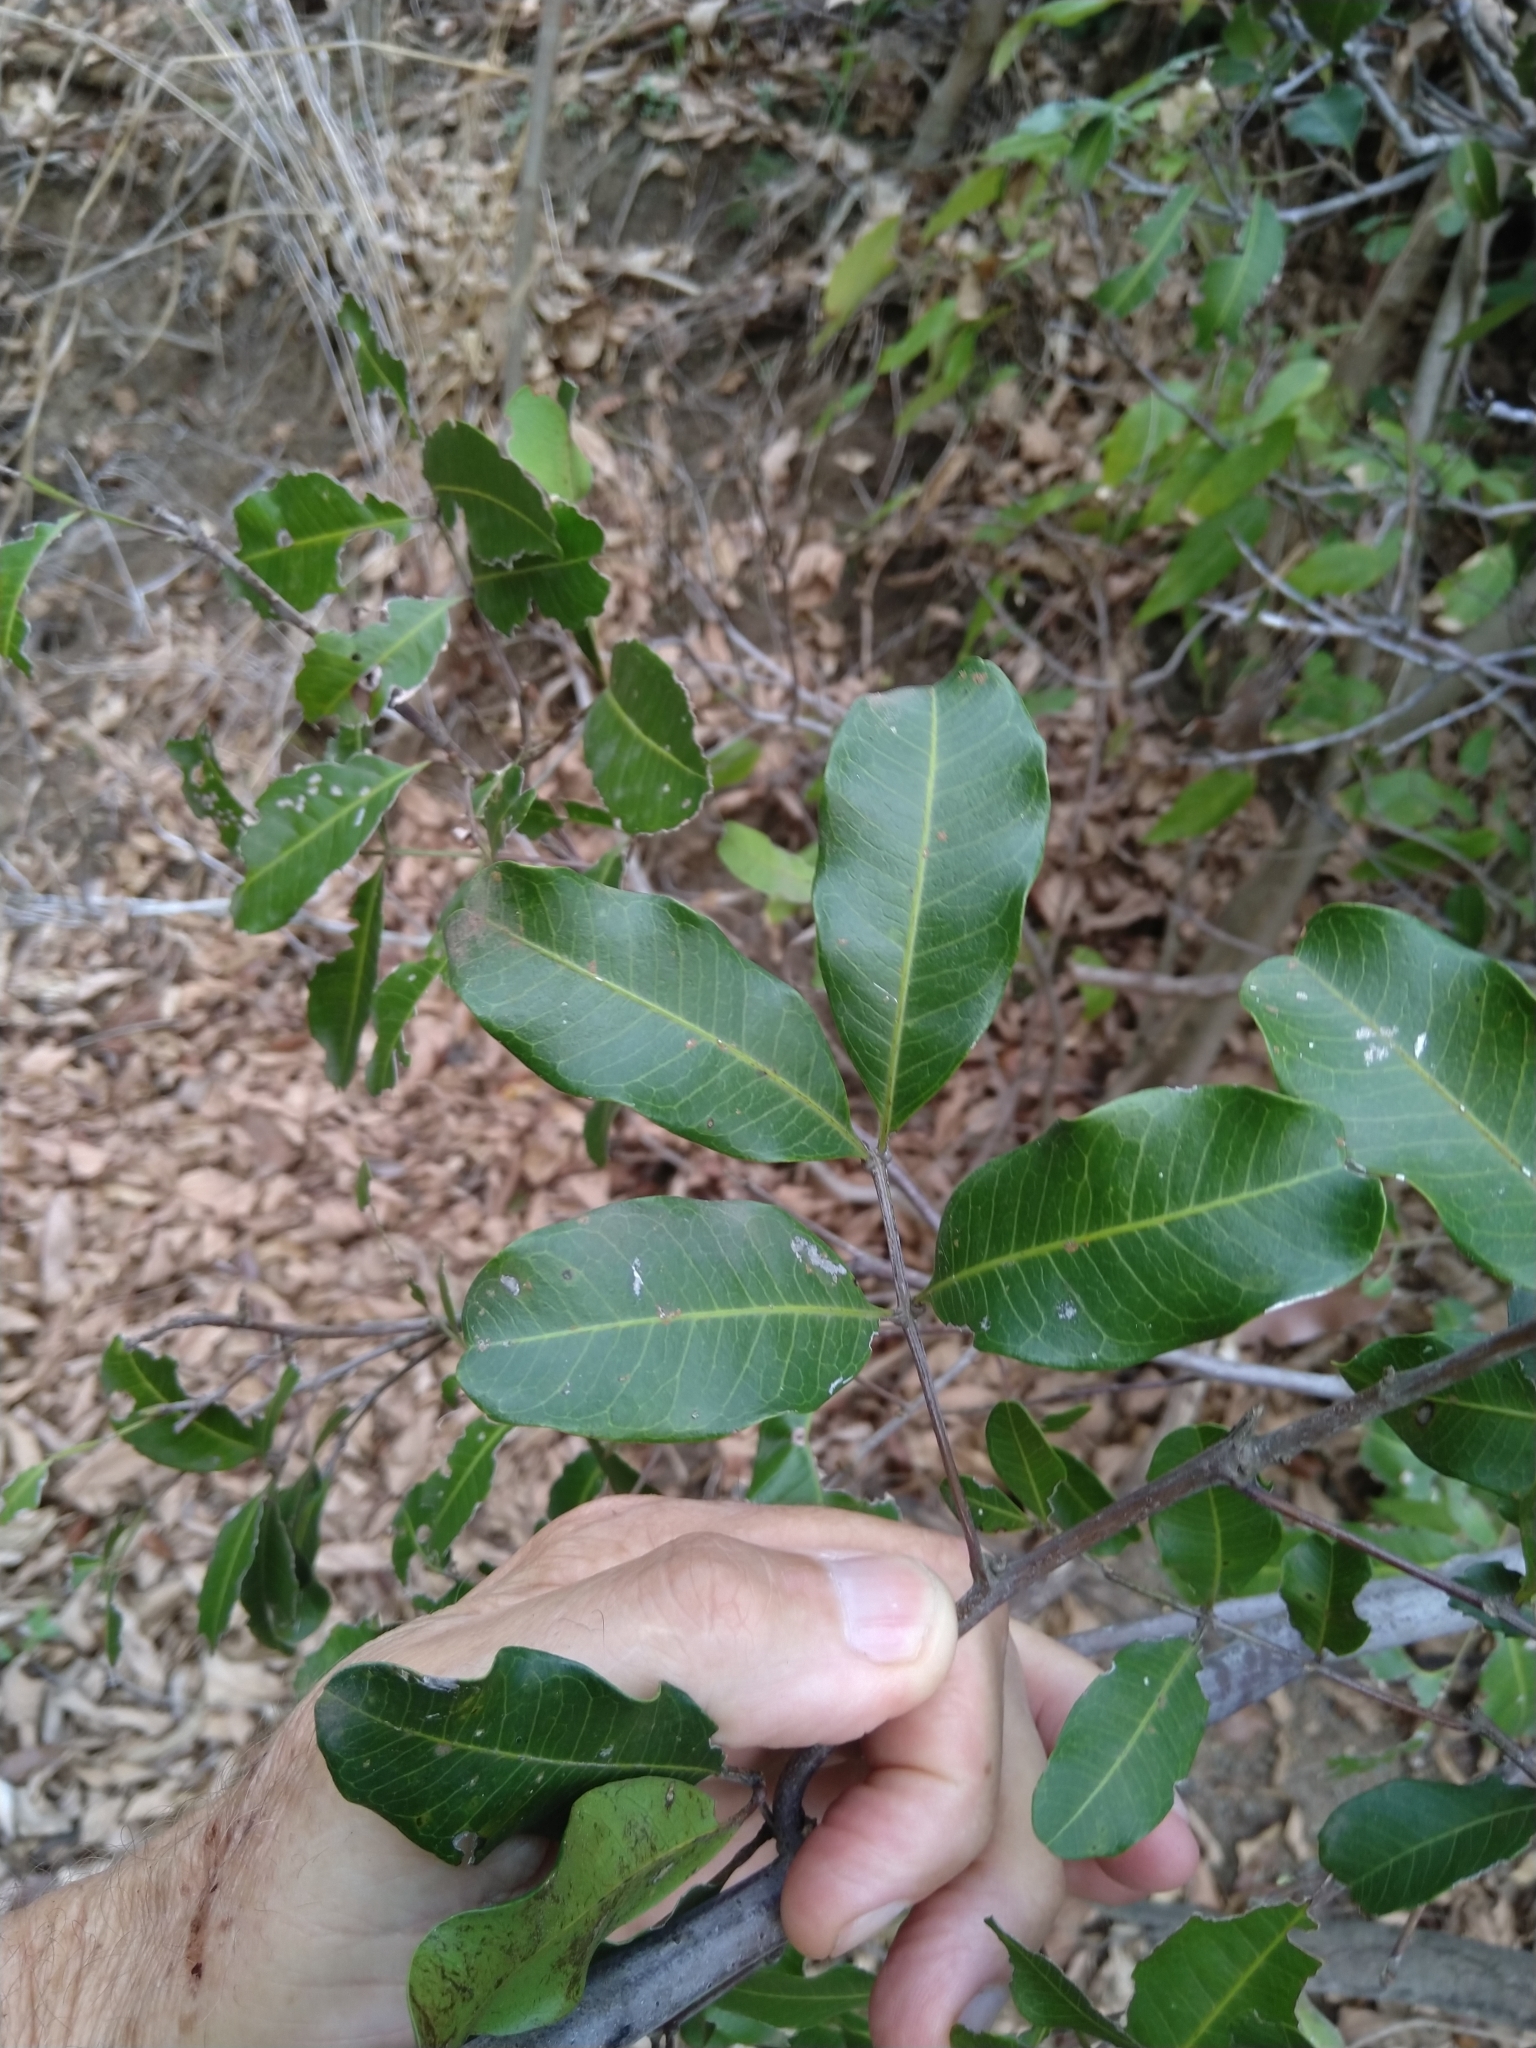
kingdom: Plantae
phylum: Tracheophyta
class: Magnoliopsida
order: Sapindales
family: Sapindaceae
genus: Cupaniopsis
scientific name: Cupaniopsis parvifolia
